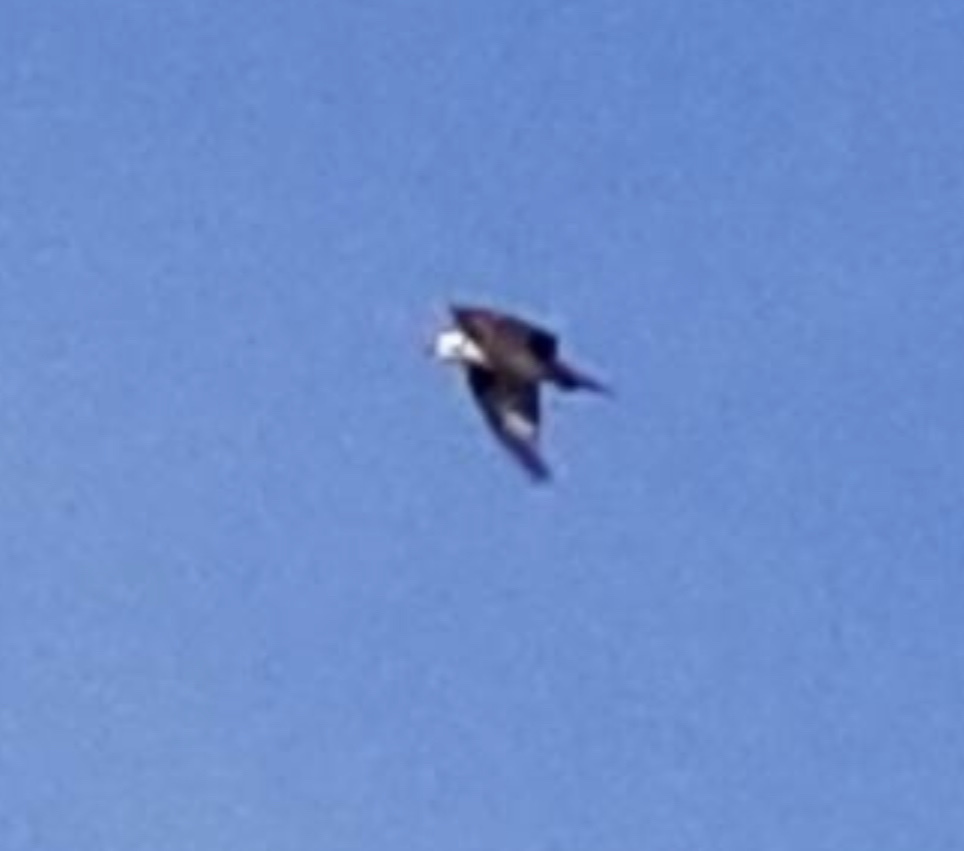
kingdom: Animalia
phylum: Chordata
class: Aves
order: Accipitriformes
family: Pandionidae
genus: Pandion
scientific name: Pandion haliaetus
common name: Osprey
